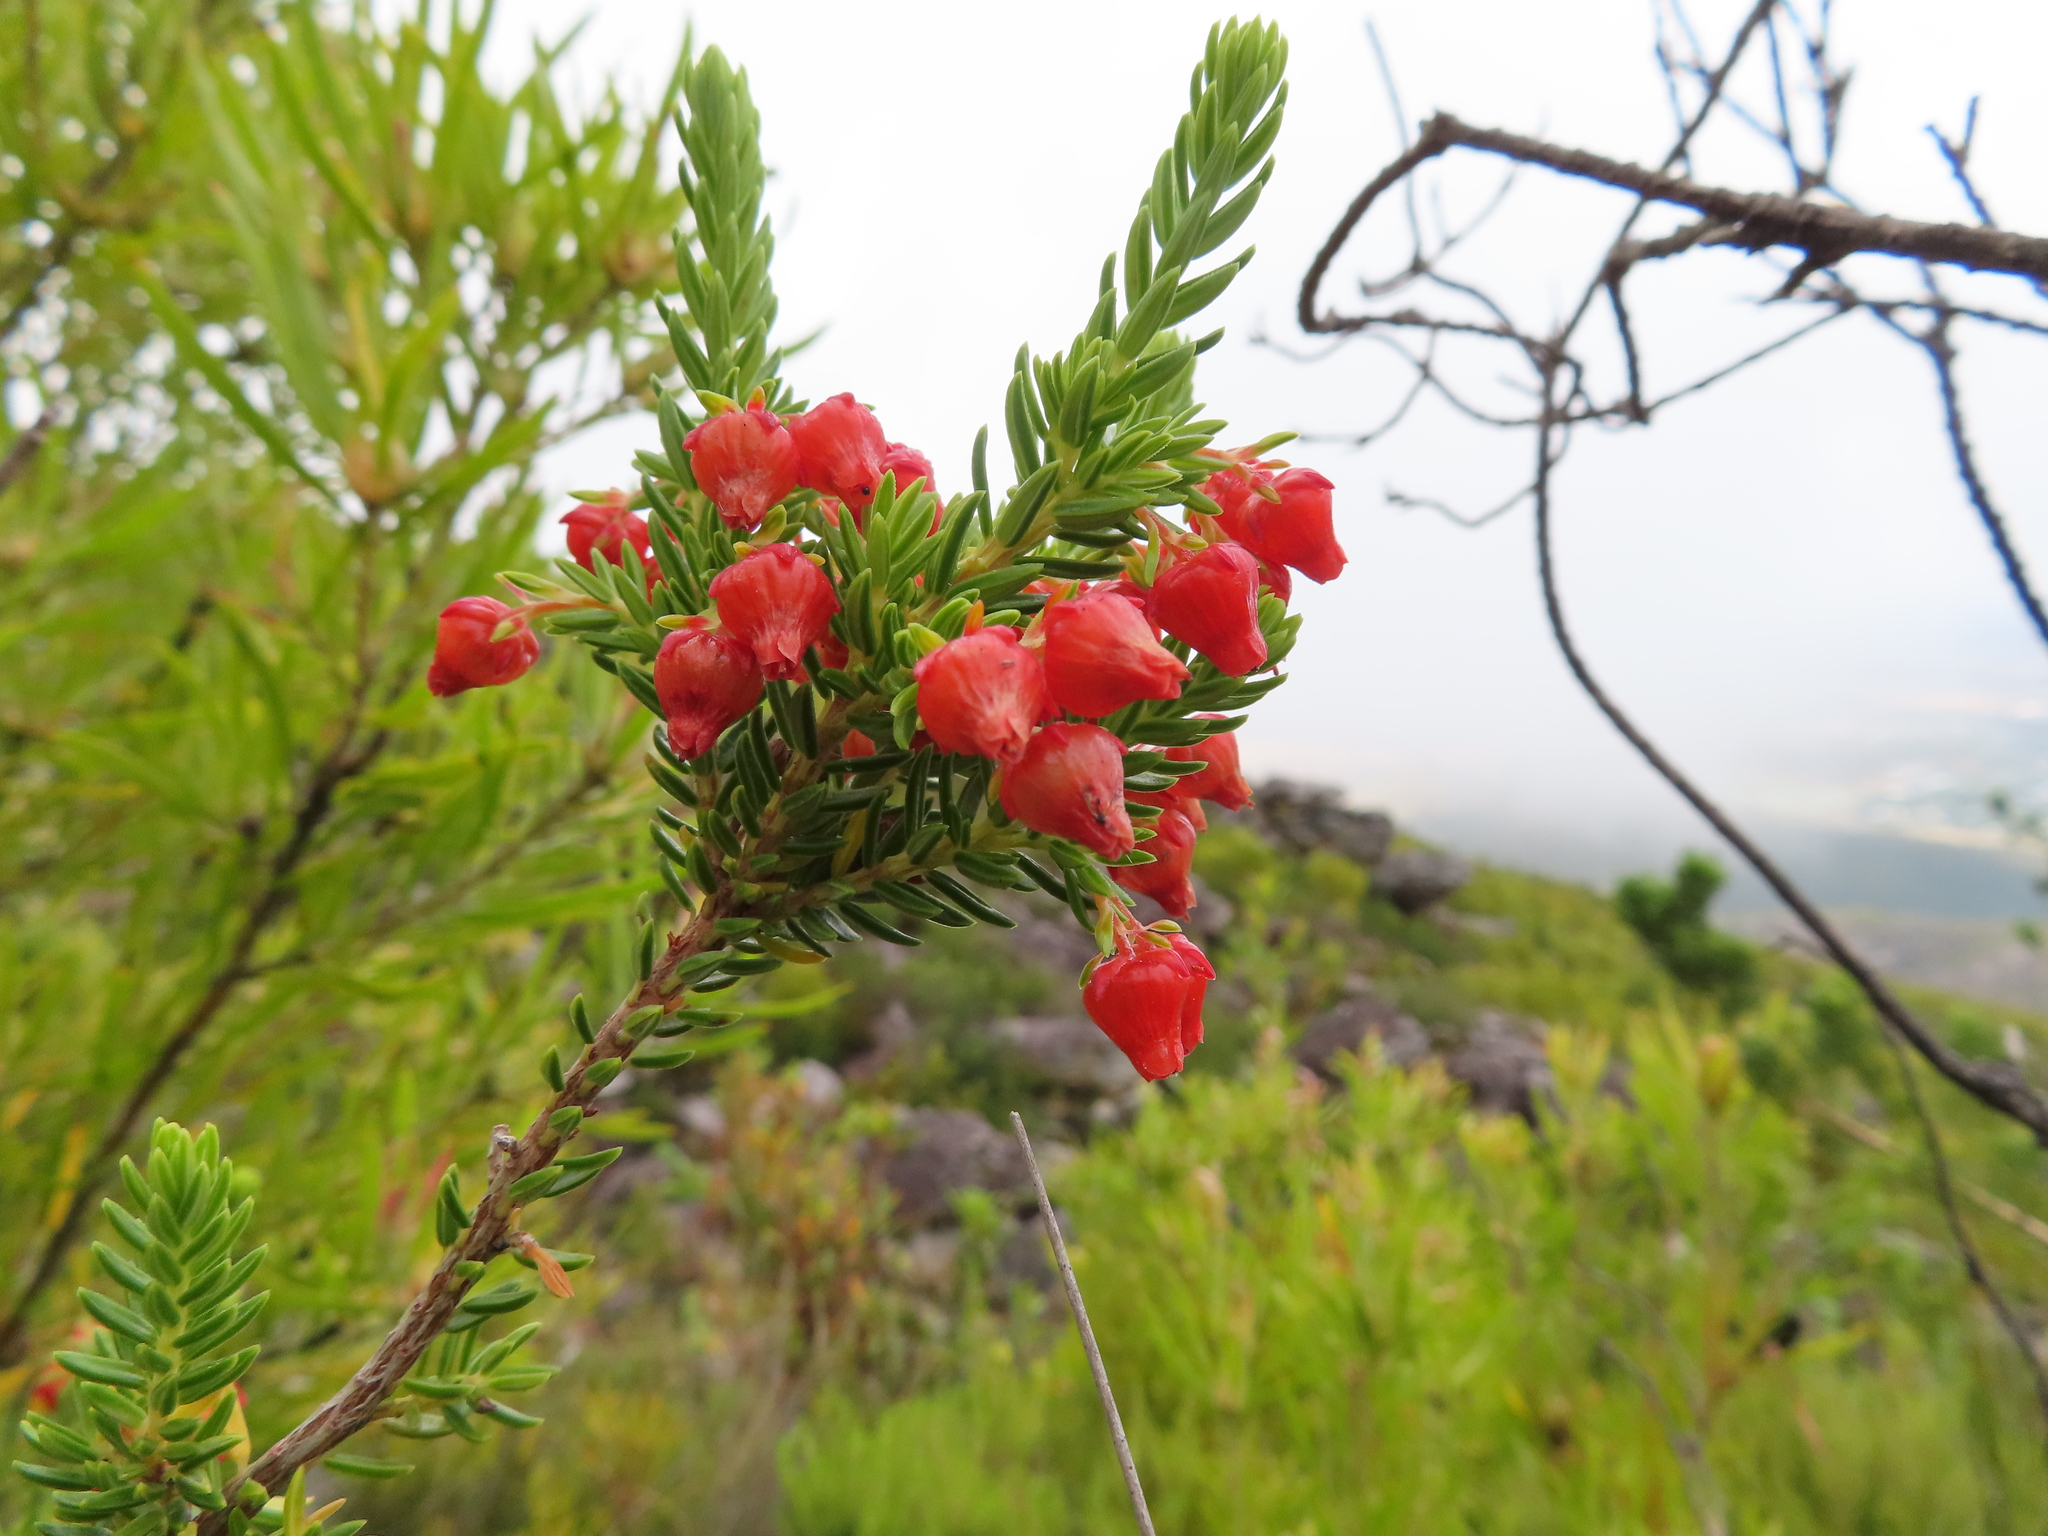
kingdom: Plantae
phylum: Tracheophyta
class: Magnoliopsida
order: Ericales
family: Ericaceae
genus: Erica
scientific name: Erica ardens
